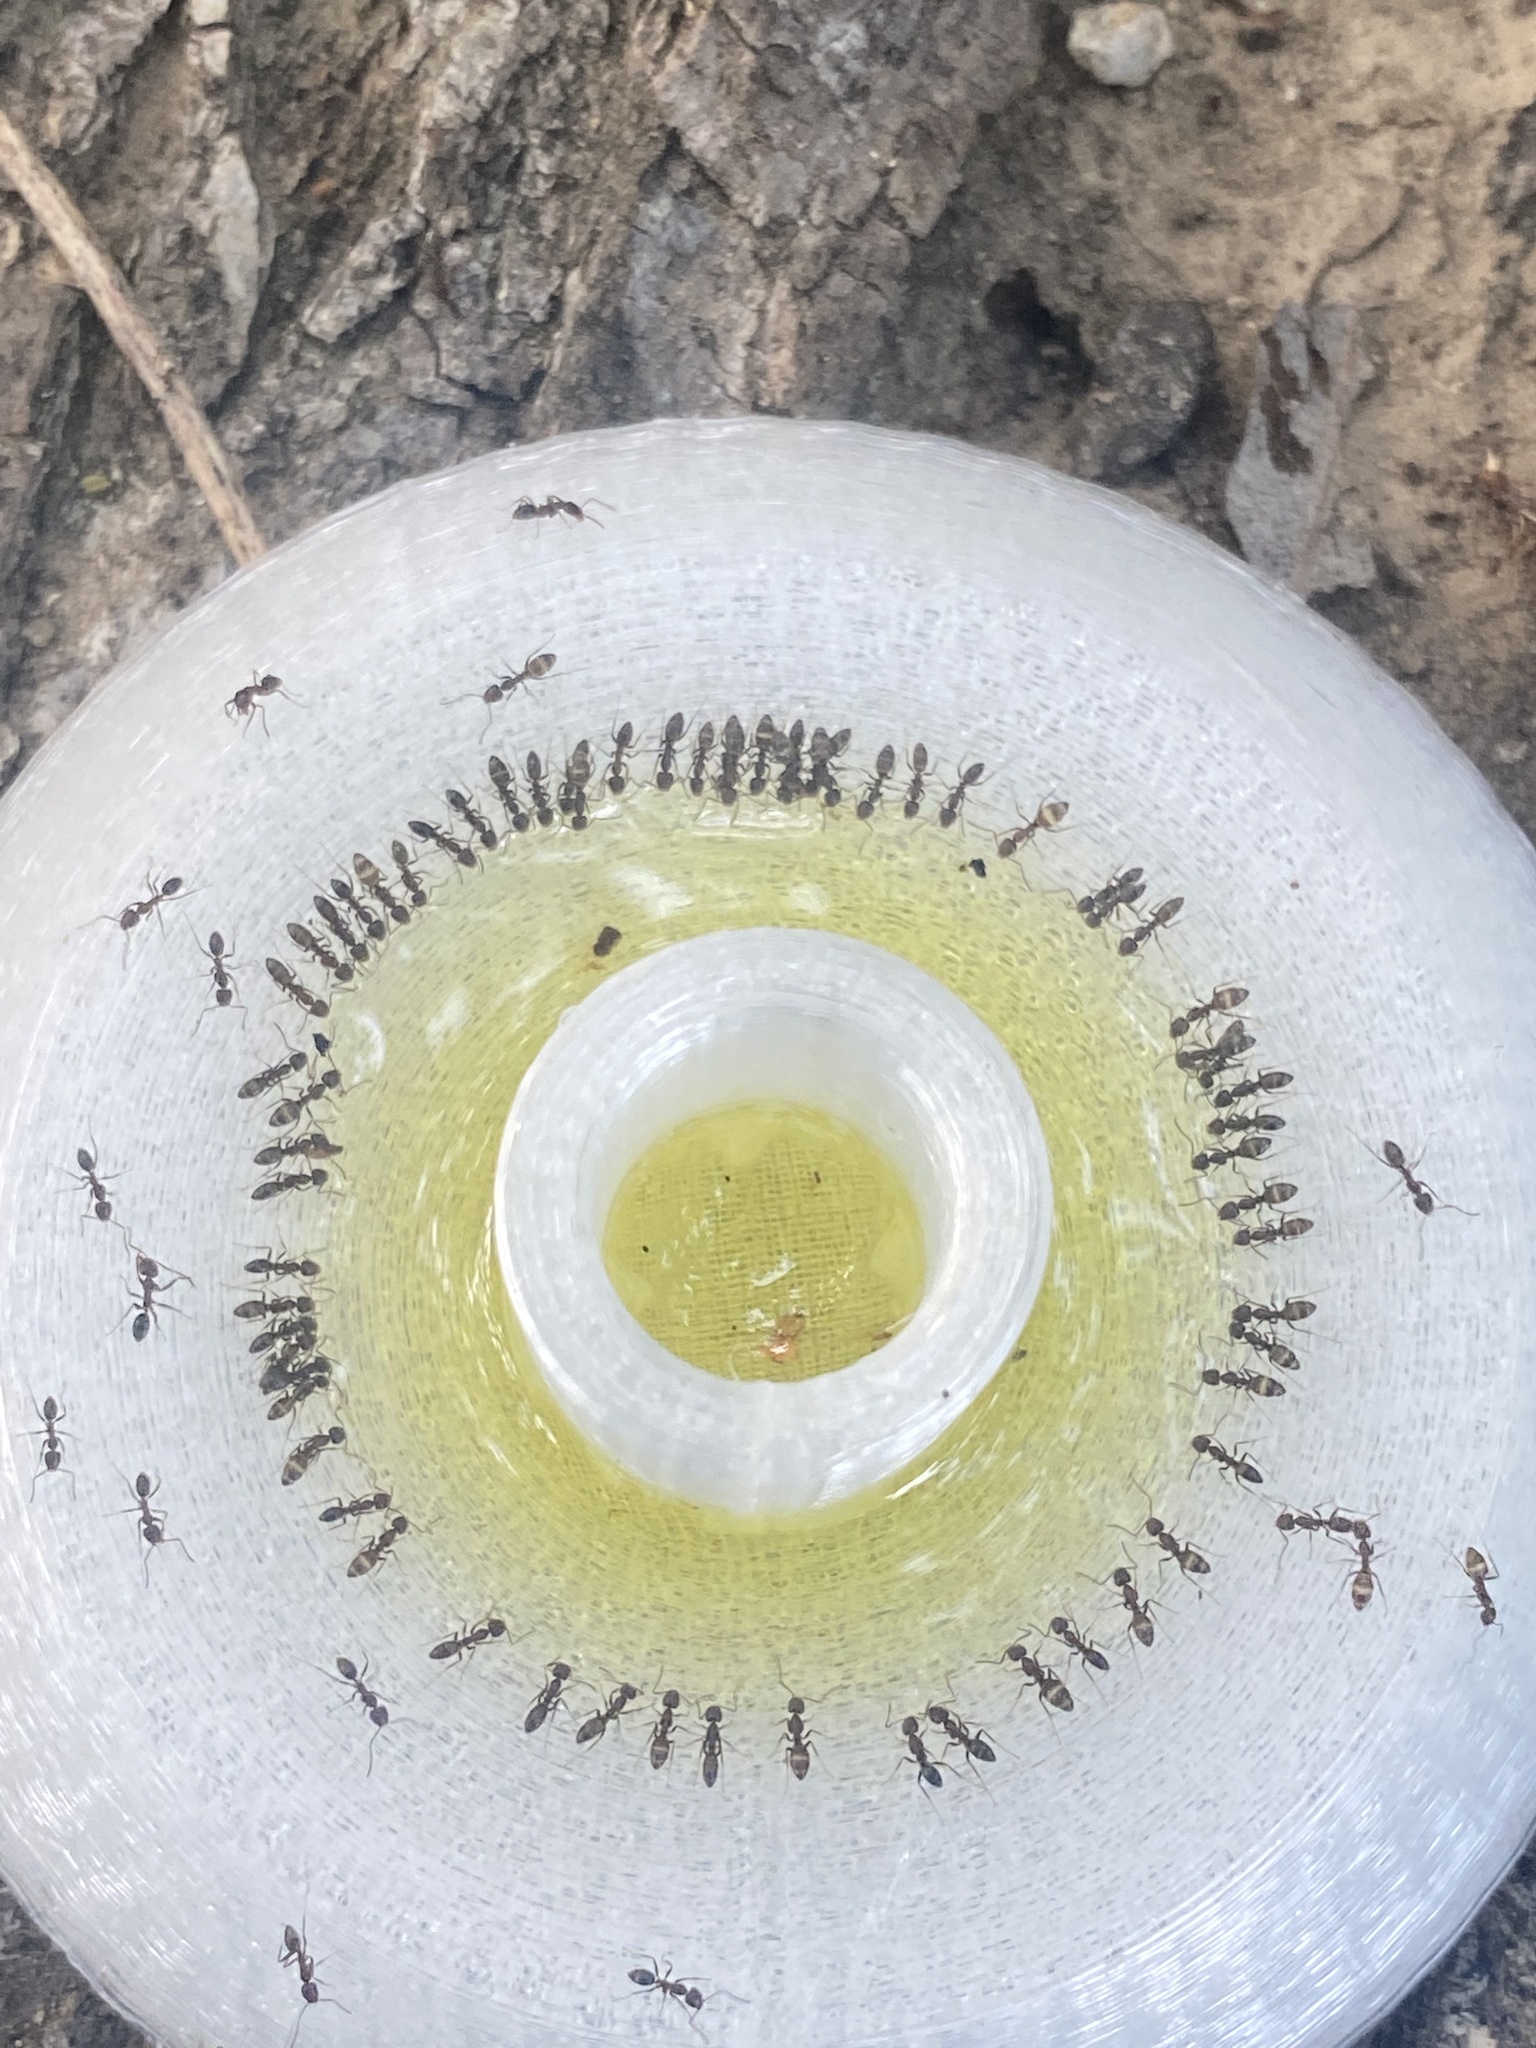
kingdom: Animalia
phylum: Arthropoda
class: Insecta
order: Hymenoptera
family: Formicidae
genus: Linepithema
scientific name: Linepithema humile
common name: Argentine ant
